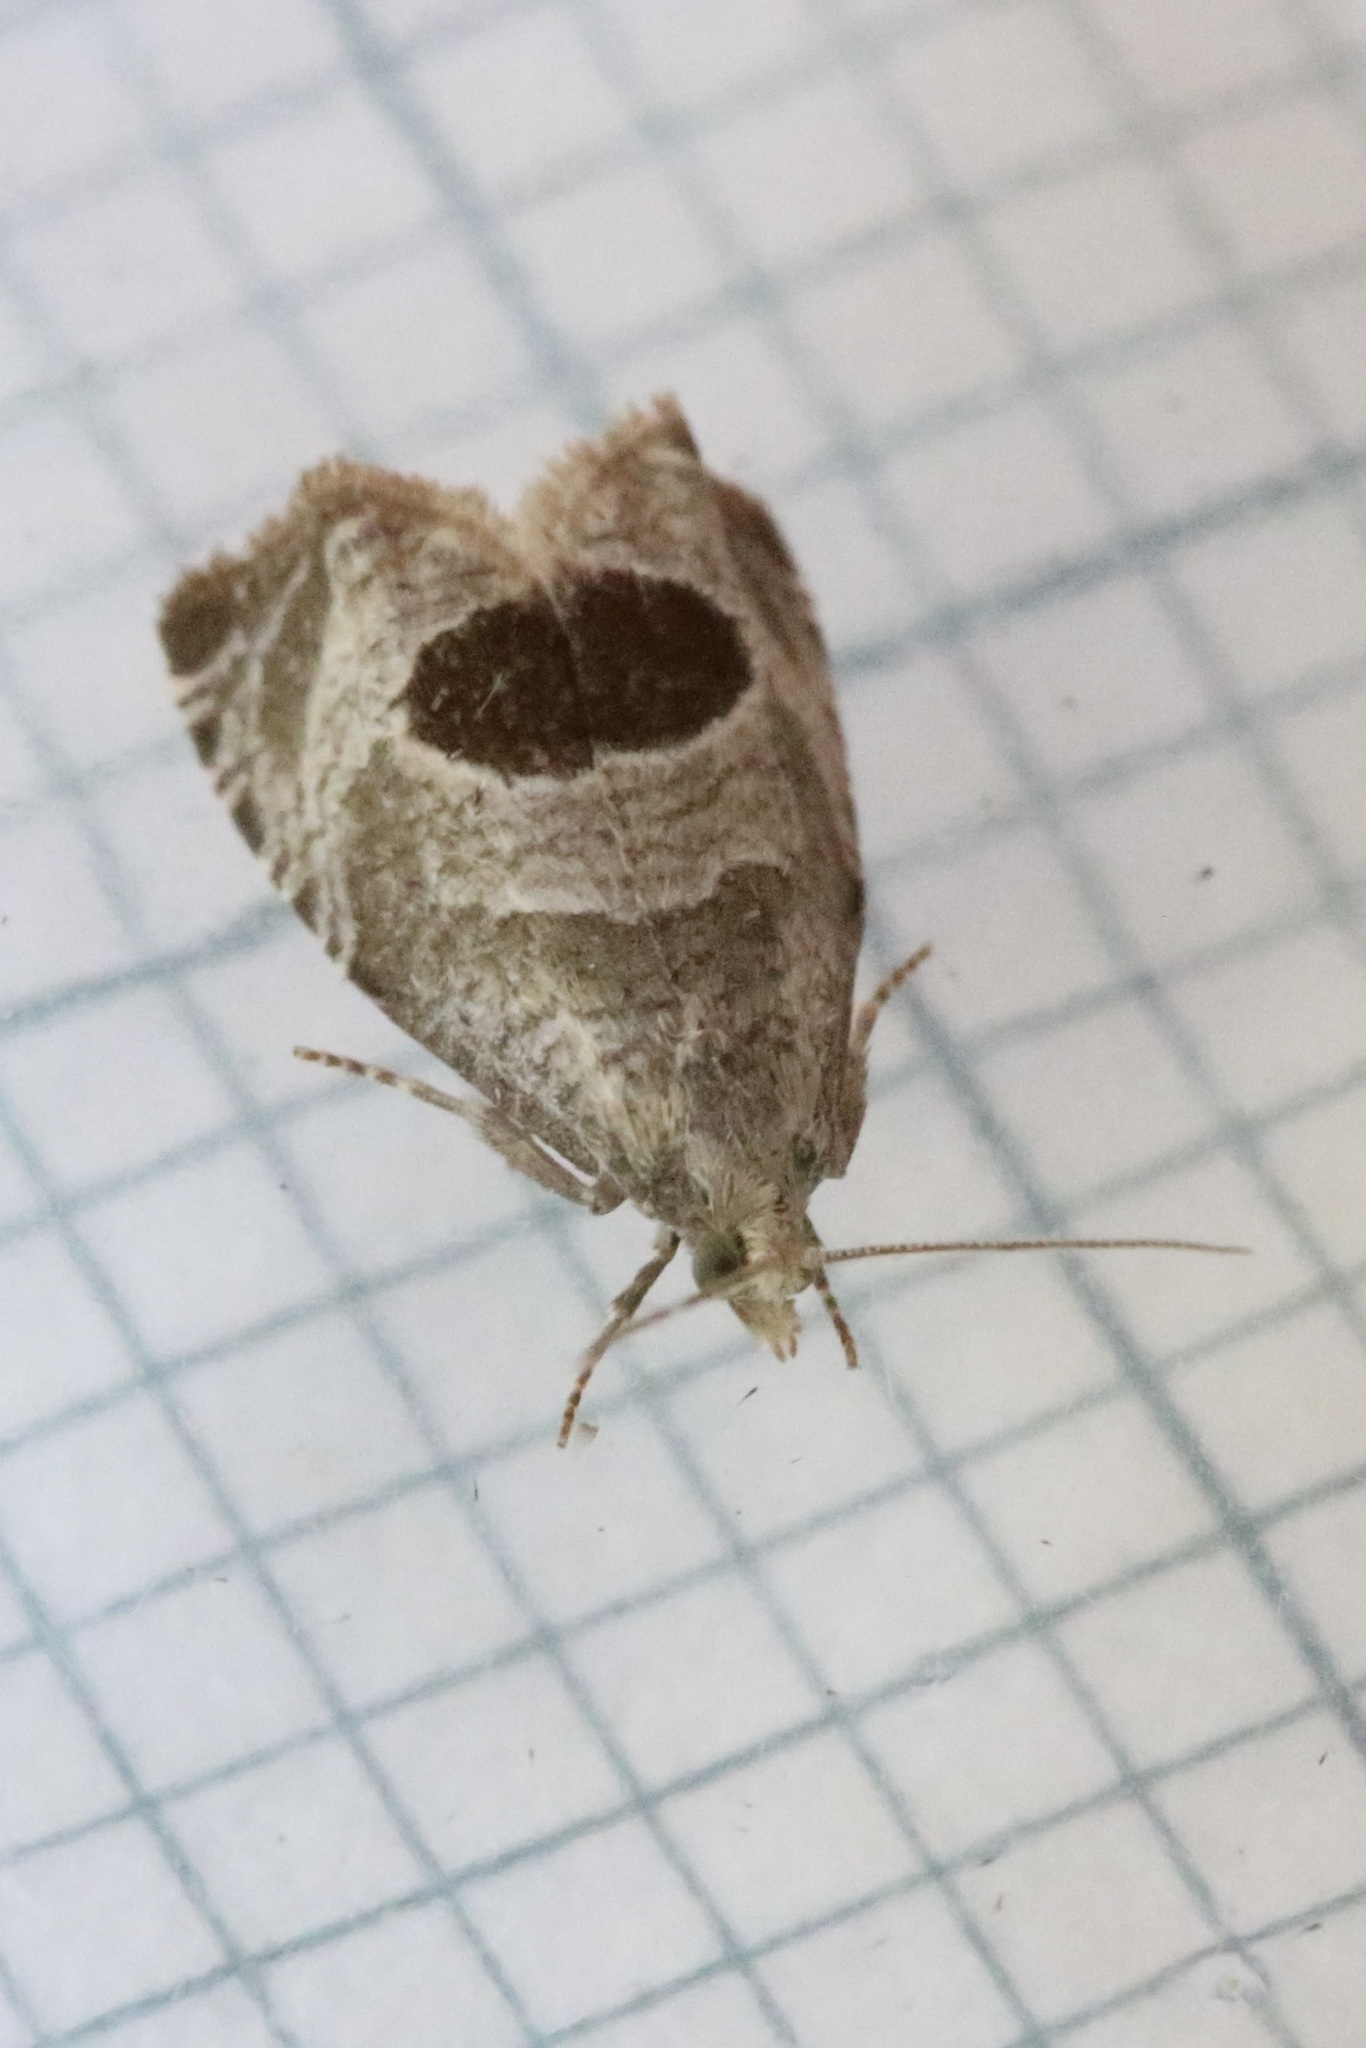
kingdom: Animalia
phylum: Arthropoda
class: Insecta
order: Lepidoptera
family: Tortricidae
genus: Notocelia
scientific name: Notocelia uddmanniana
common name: Bramble shoot moth
